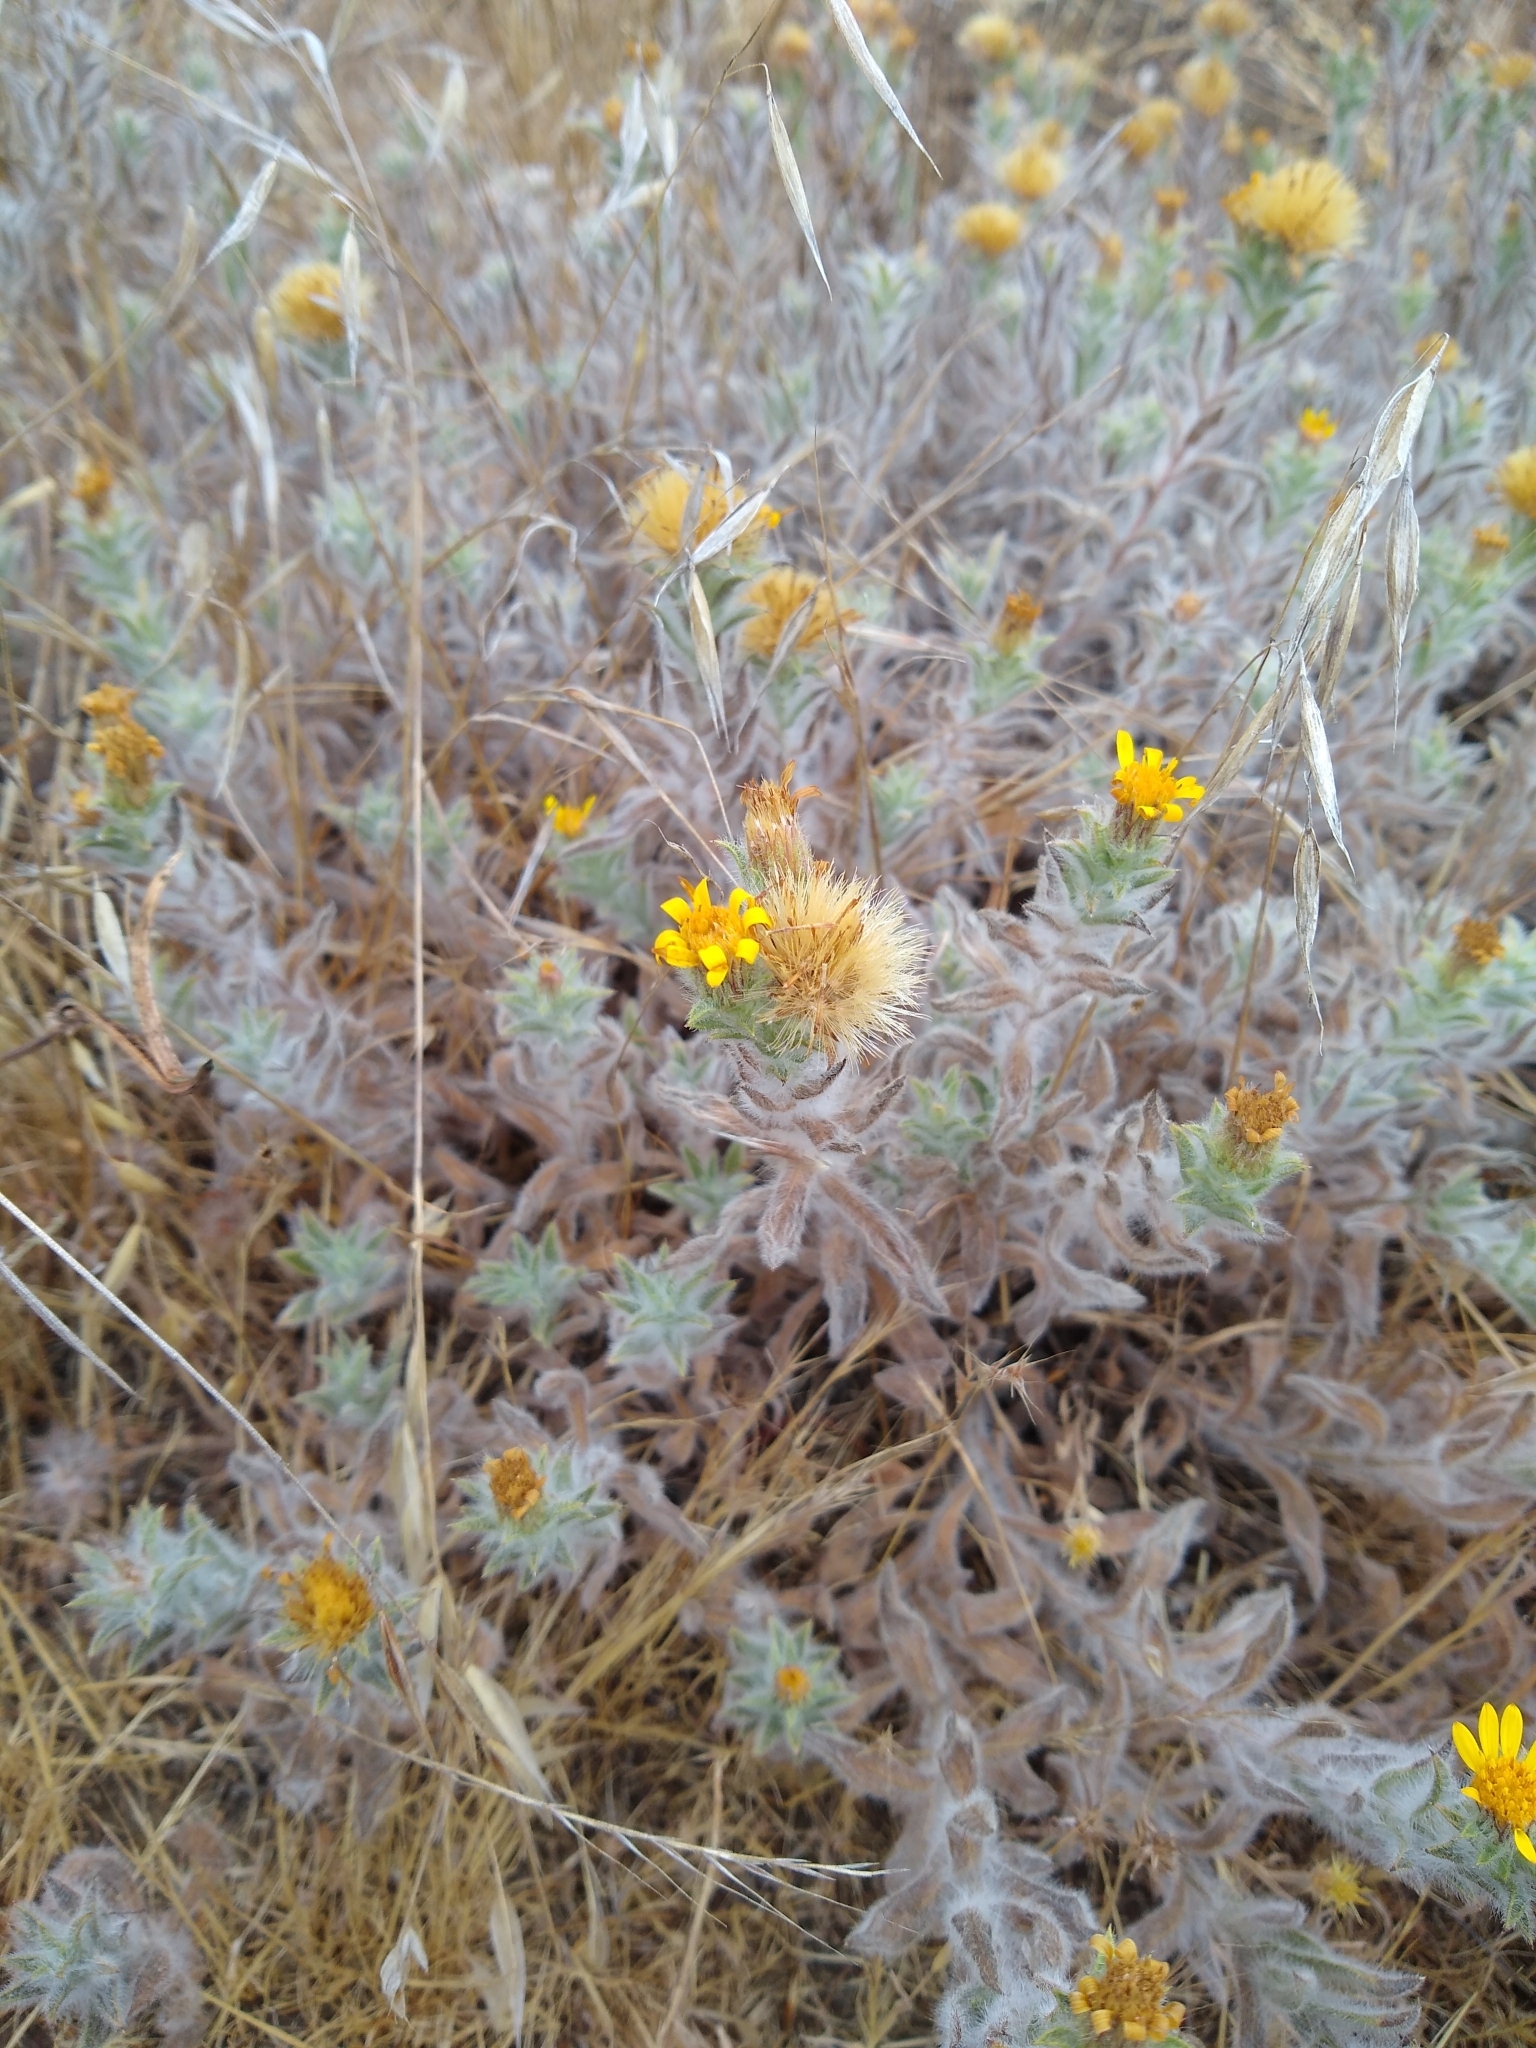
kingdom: Plantae
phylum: Tracheophyta
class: Magnoliopsida
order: Asterales
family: Asteraceae
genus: Heterotheca
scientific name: Heterotheca sessiliflora
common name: Sessile-flower golden-aster
